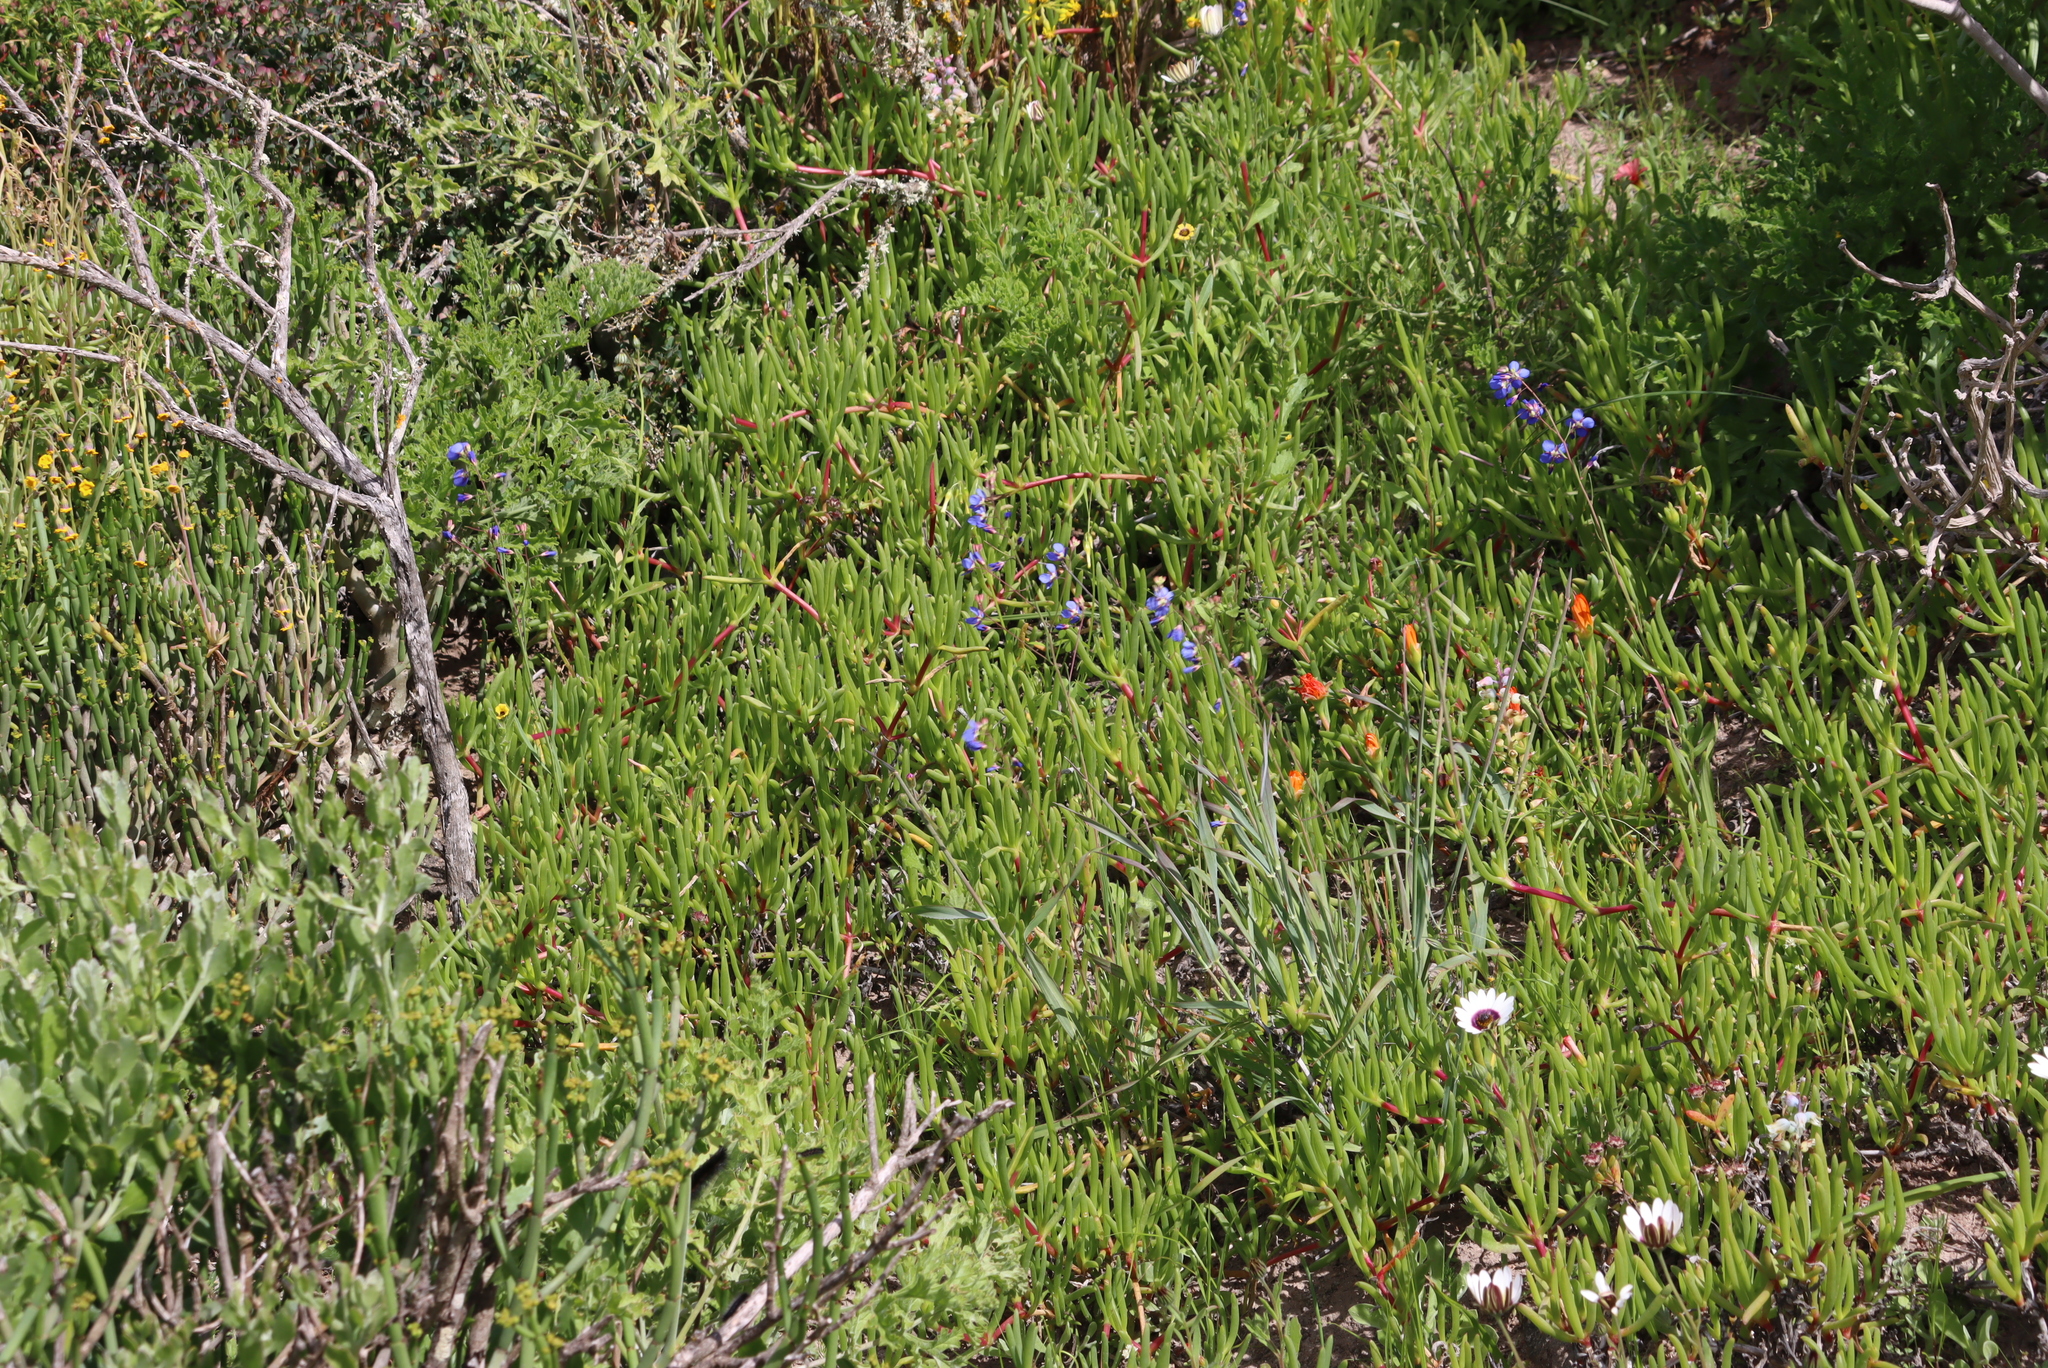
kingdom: Plantae
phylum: Tracheophyta
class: Magnoliopsida
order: Brassicales
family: Brassicaceae
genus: Heliophila
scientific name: Heliophila coronopifolia
